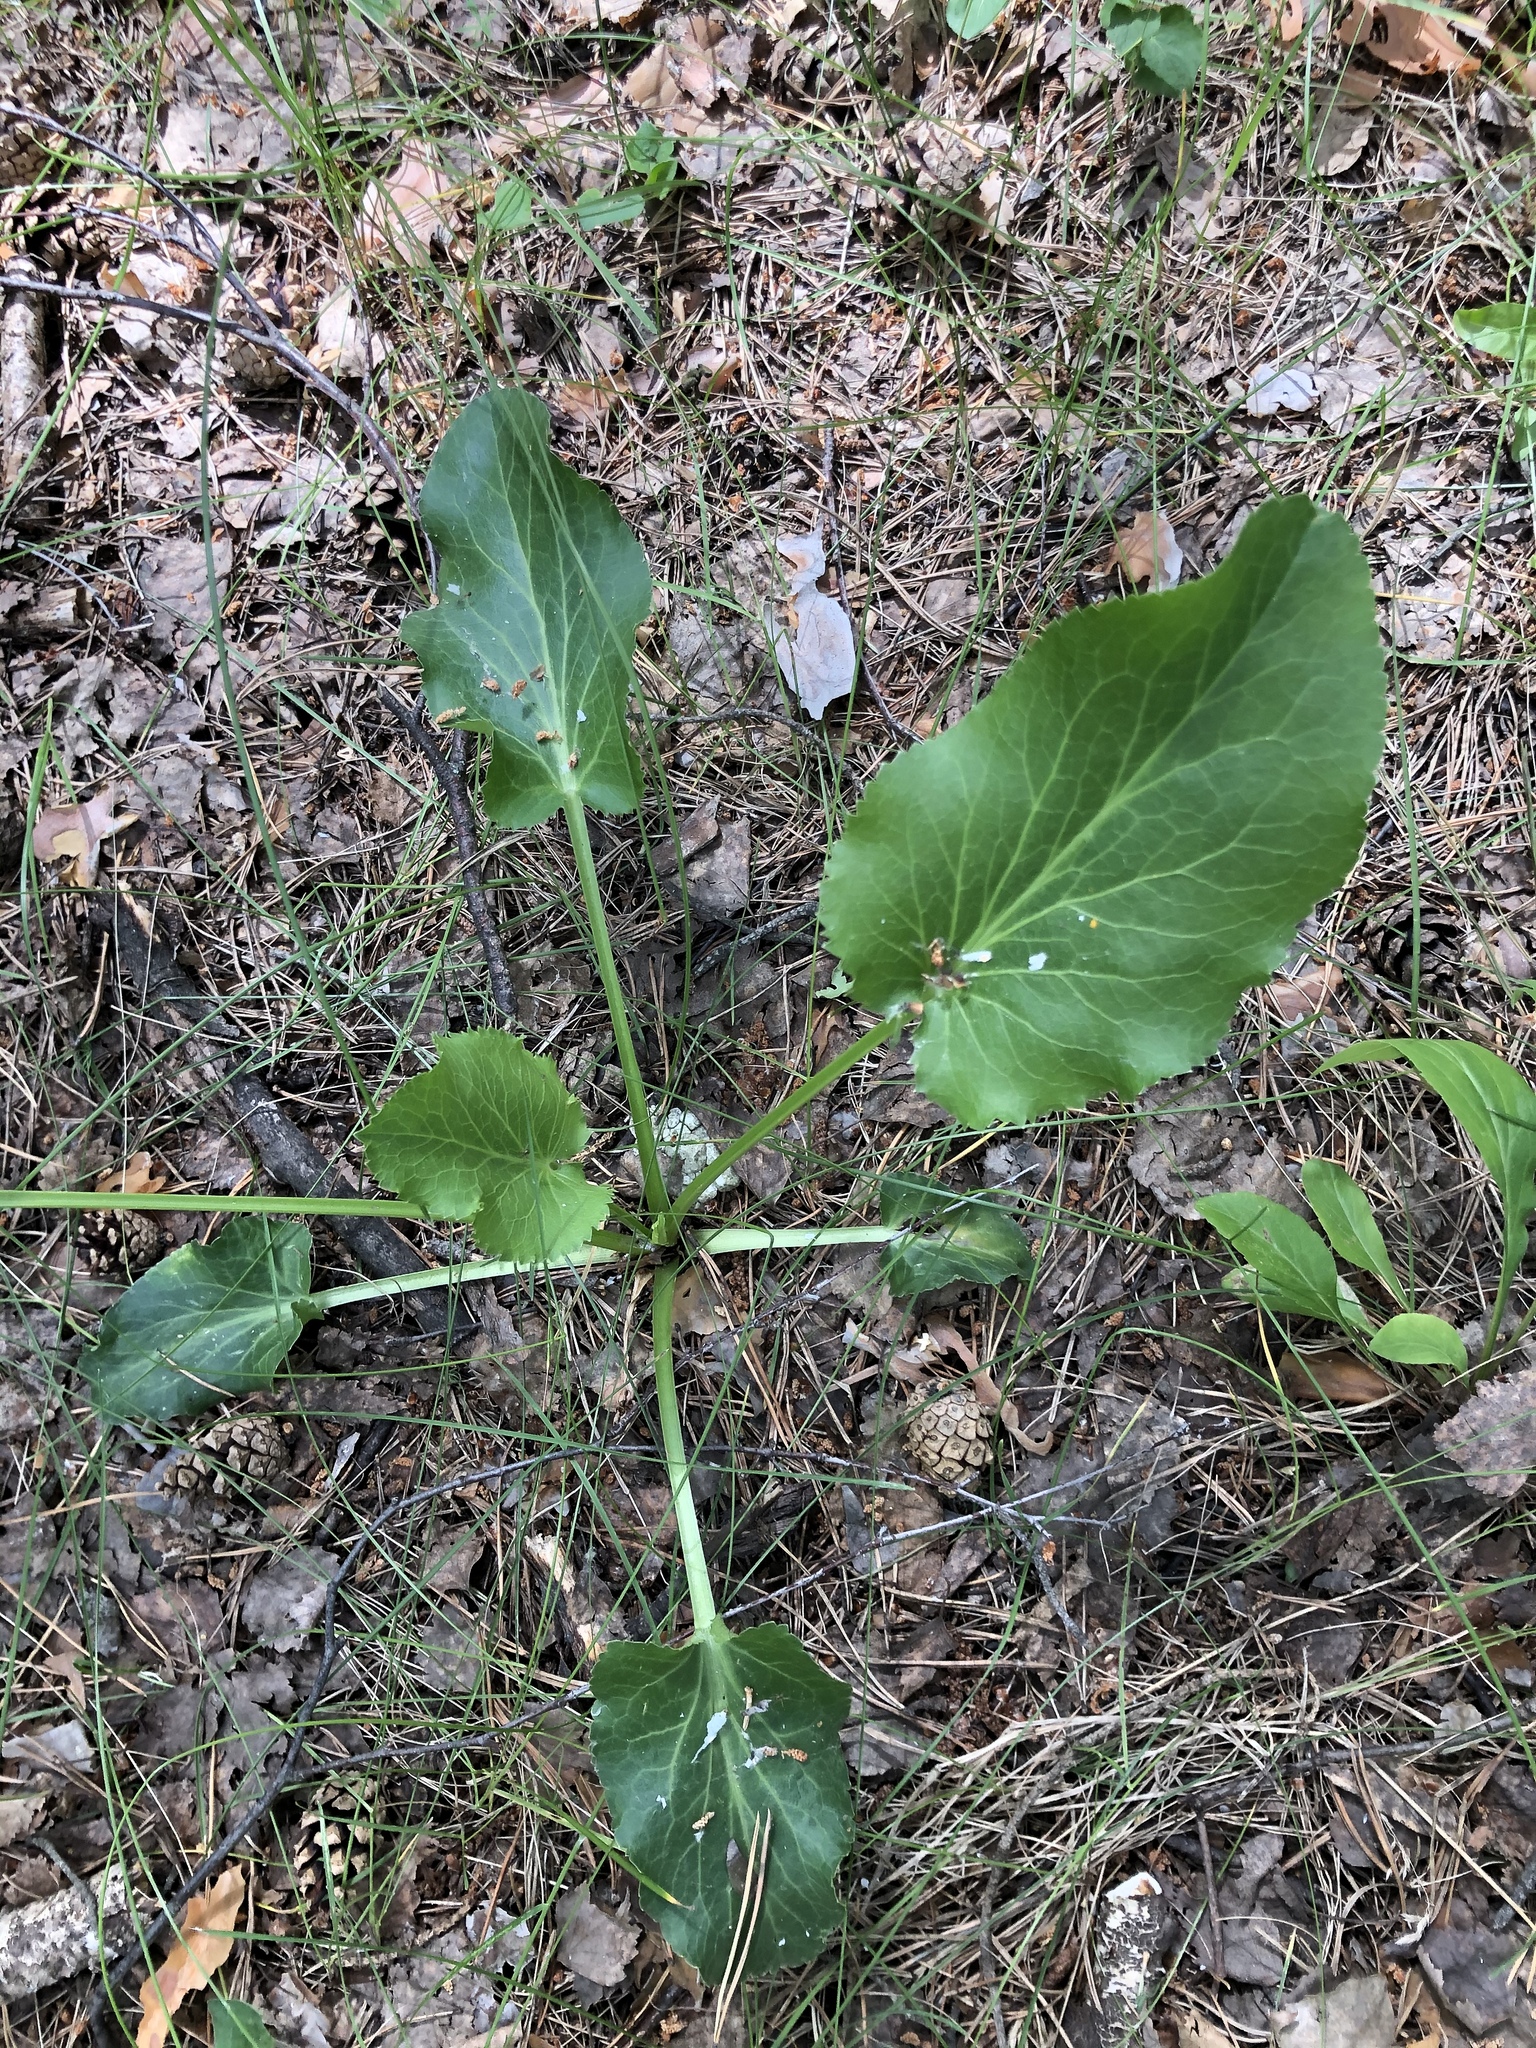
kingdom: Plantae
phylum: Tracheophyta
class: Magnoliopsida
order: Apiales
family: Apiaceae
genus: Eryngium
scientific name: Eryngium planum
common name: Blue eryngo
